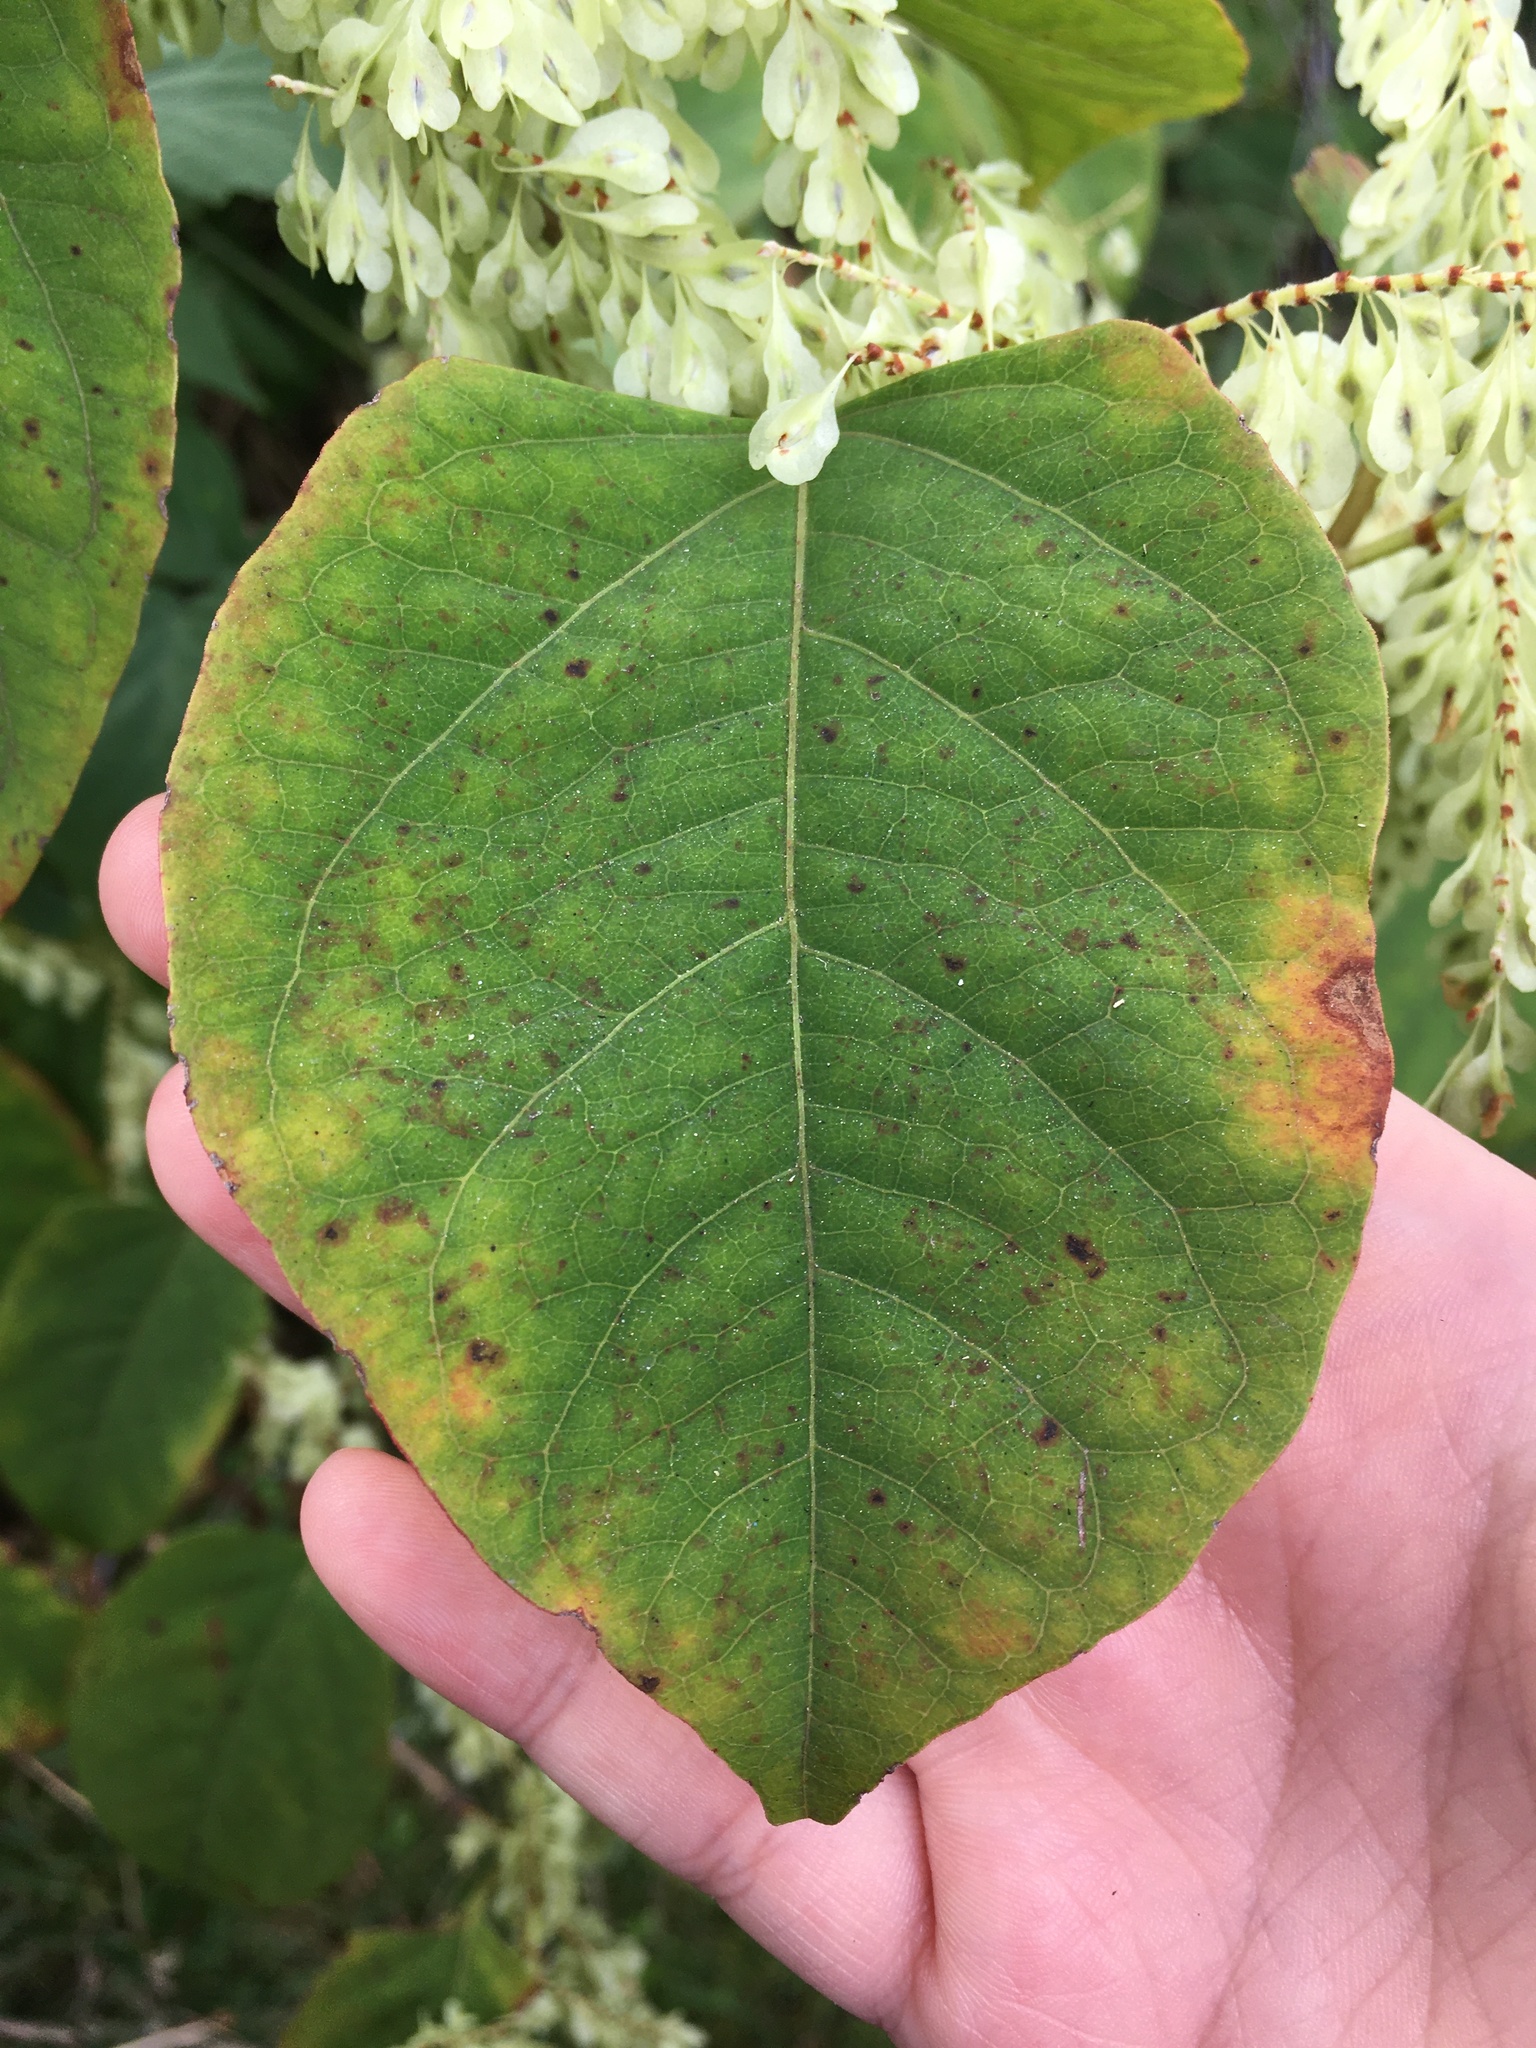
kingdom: Plantae
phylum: Tracheophyta
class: Magnoliopsida
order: Caryophyllales
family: Polygonaceae
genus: Reynoutria
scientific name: Reynoutria japonica
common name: Japanese knotweed
